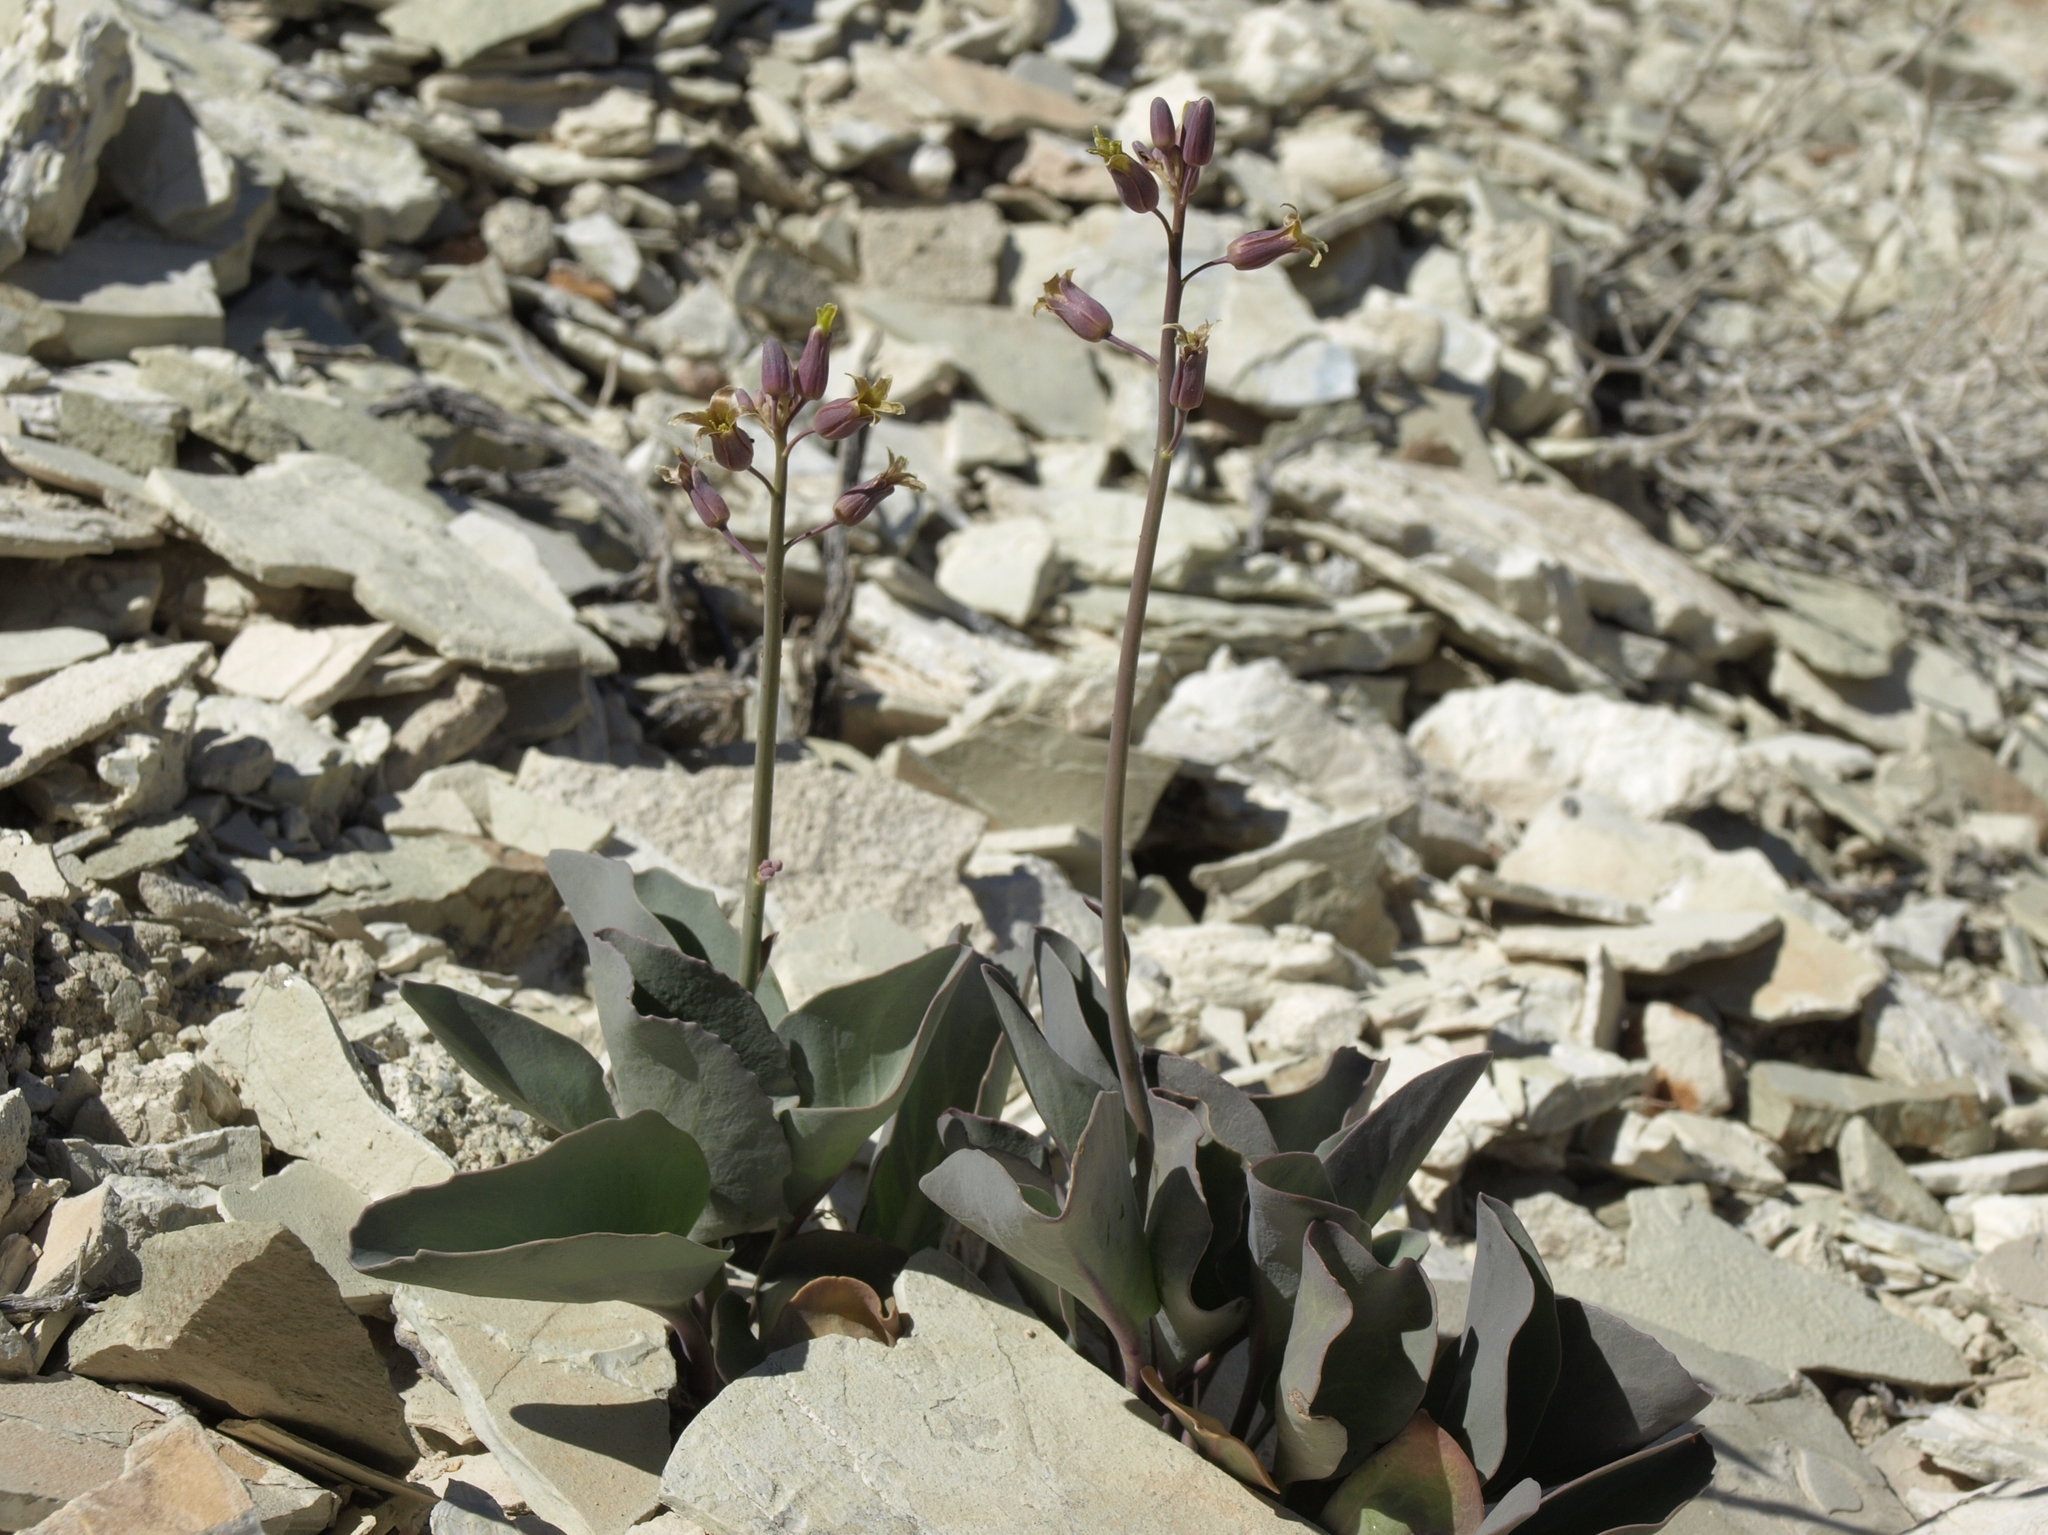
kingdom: Plantae
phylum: Tracheophyta
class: Magnoliopsida
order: Brassicales
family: Brassicaceae
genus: Streptanthus
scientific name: Streptanthus glaucus
